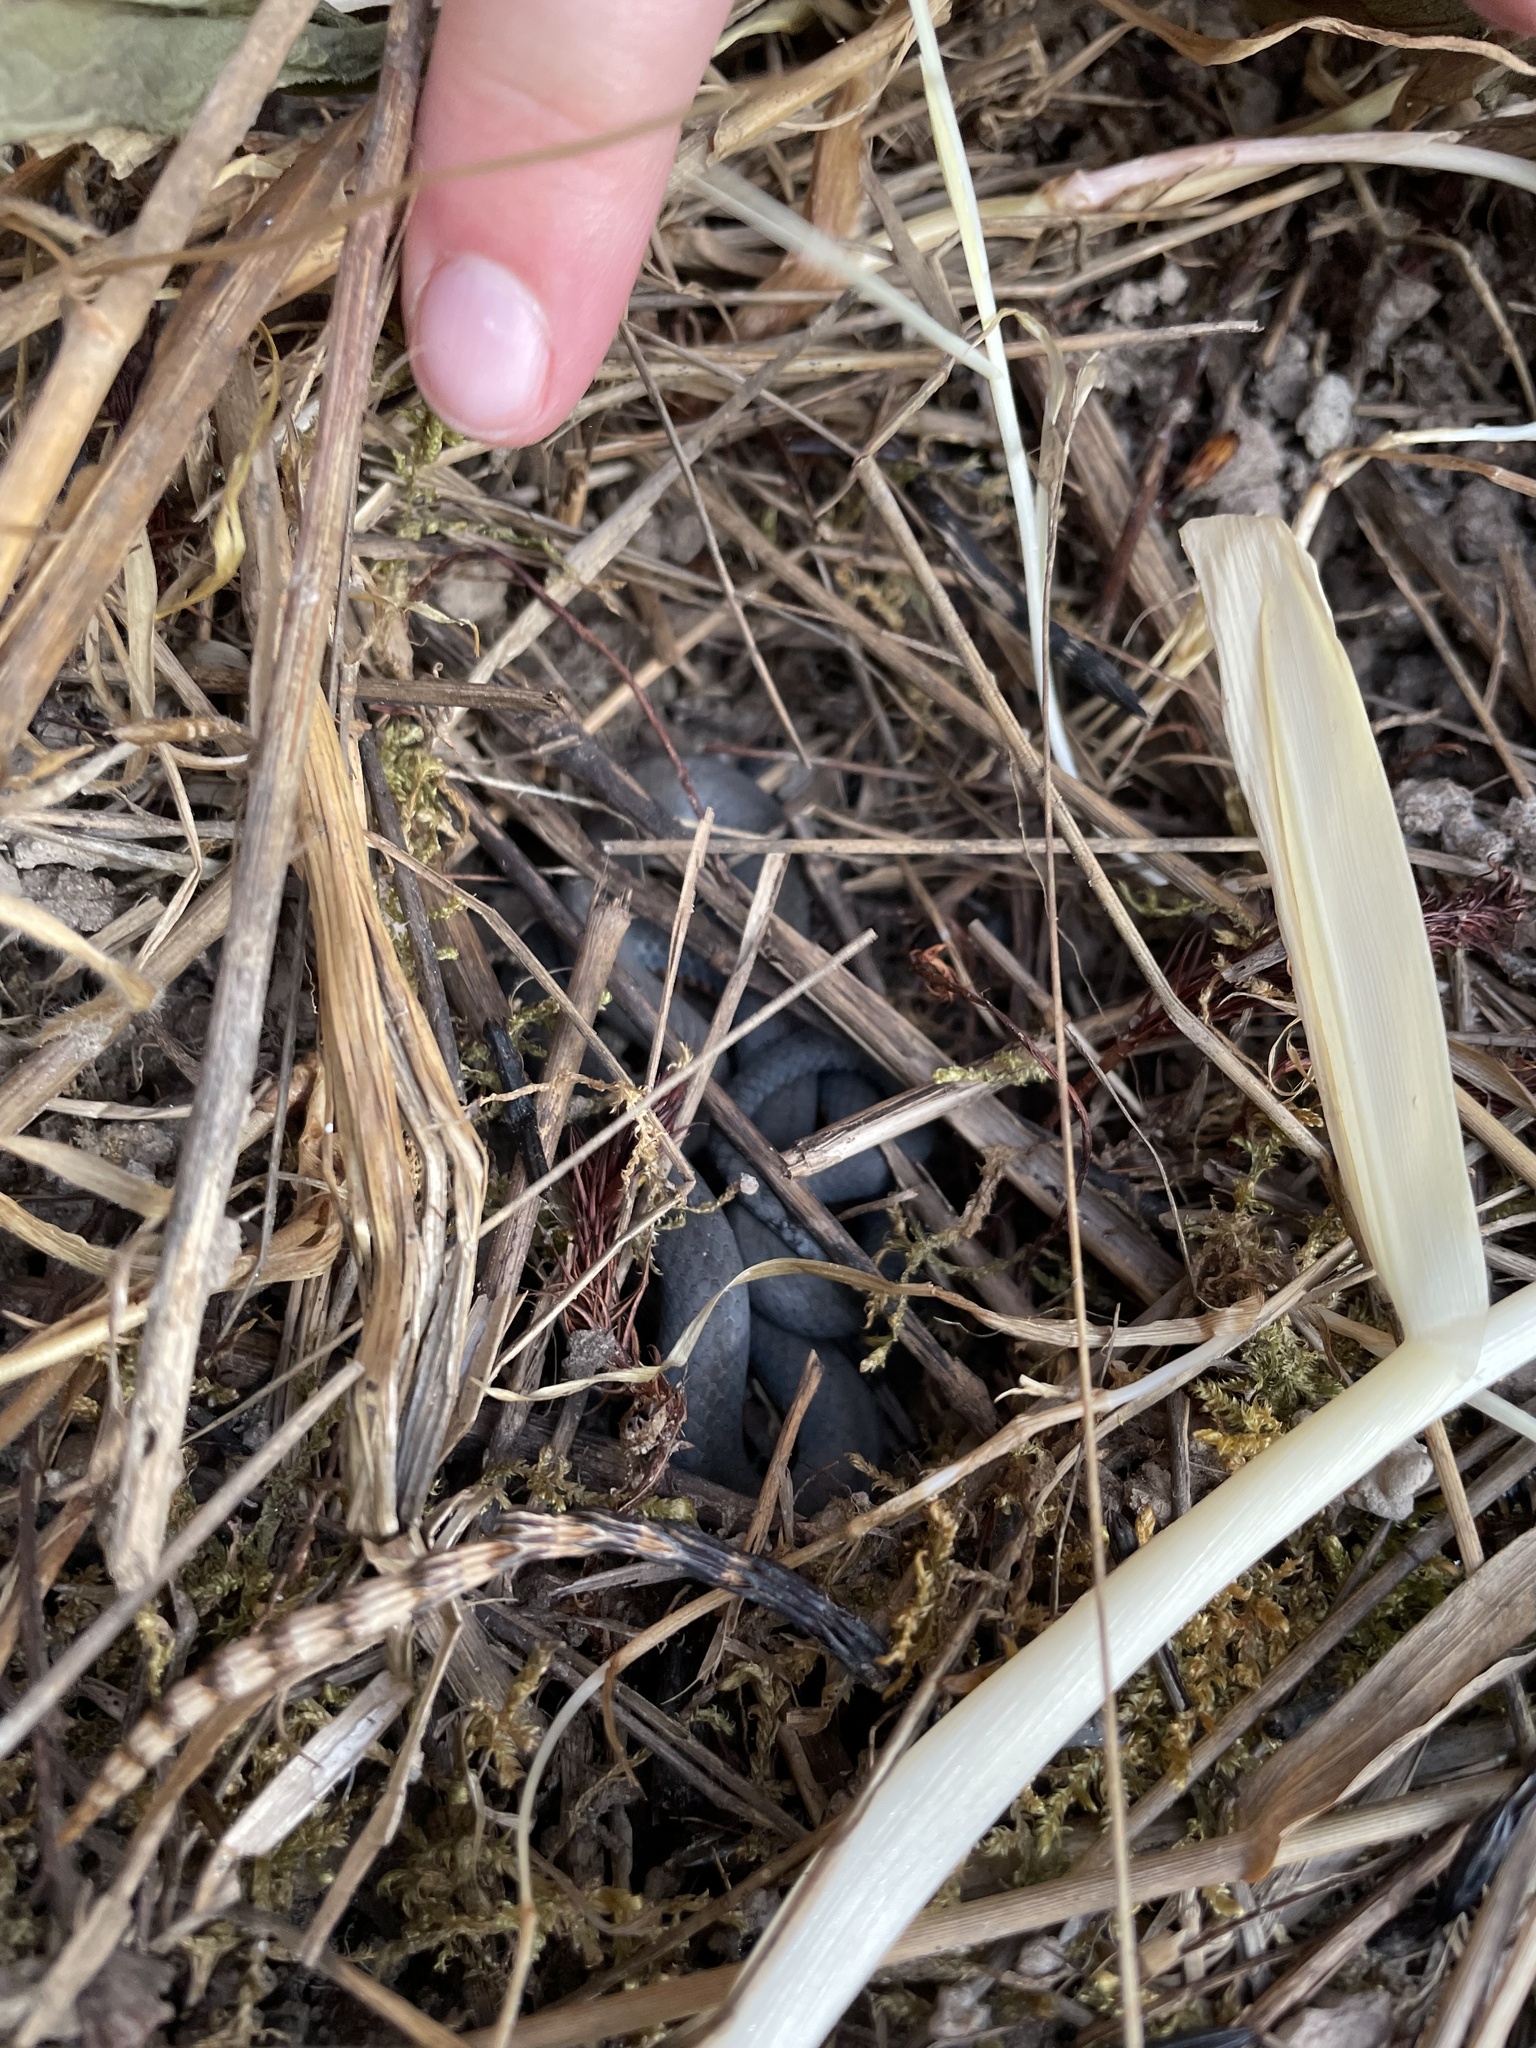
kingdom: Animalia
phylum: Chordata
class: Squamata
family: Colubridae
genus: Diadophis
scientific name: Diadophis punctatus
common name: Ringneck snake
